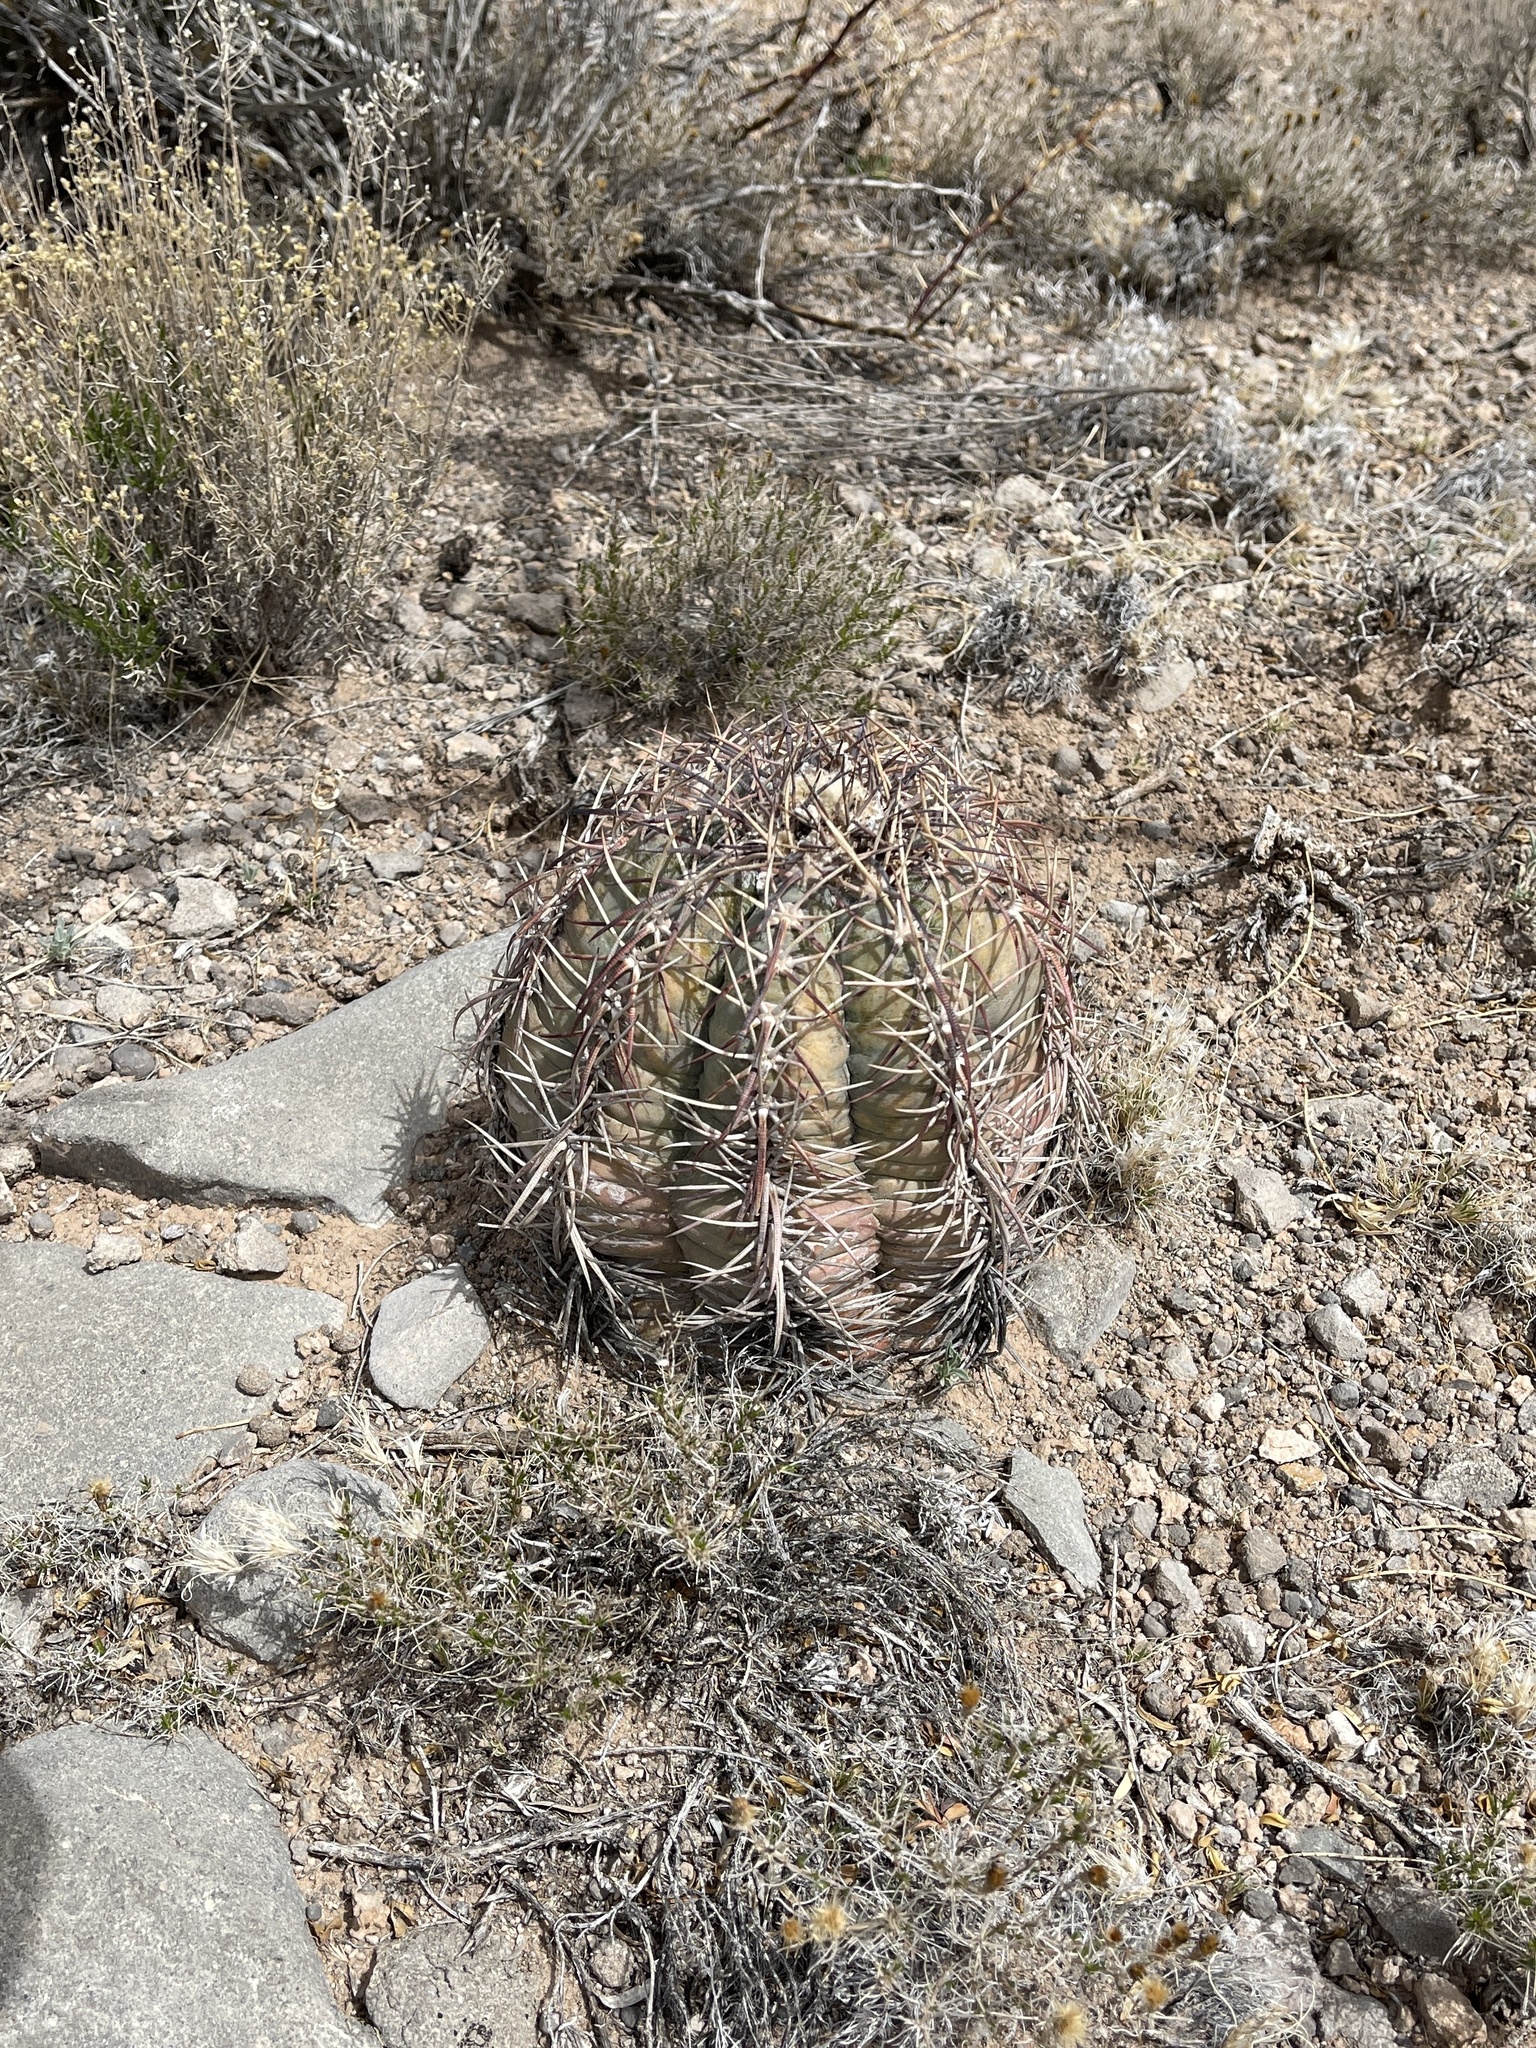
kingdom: Plantae
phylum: Tracheophyta
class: Magnoliopsida
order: Caryophyllales
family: Cactaceae
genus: Echinocactus
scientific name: Echinocactus horizonthalonius
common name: Devilshead
